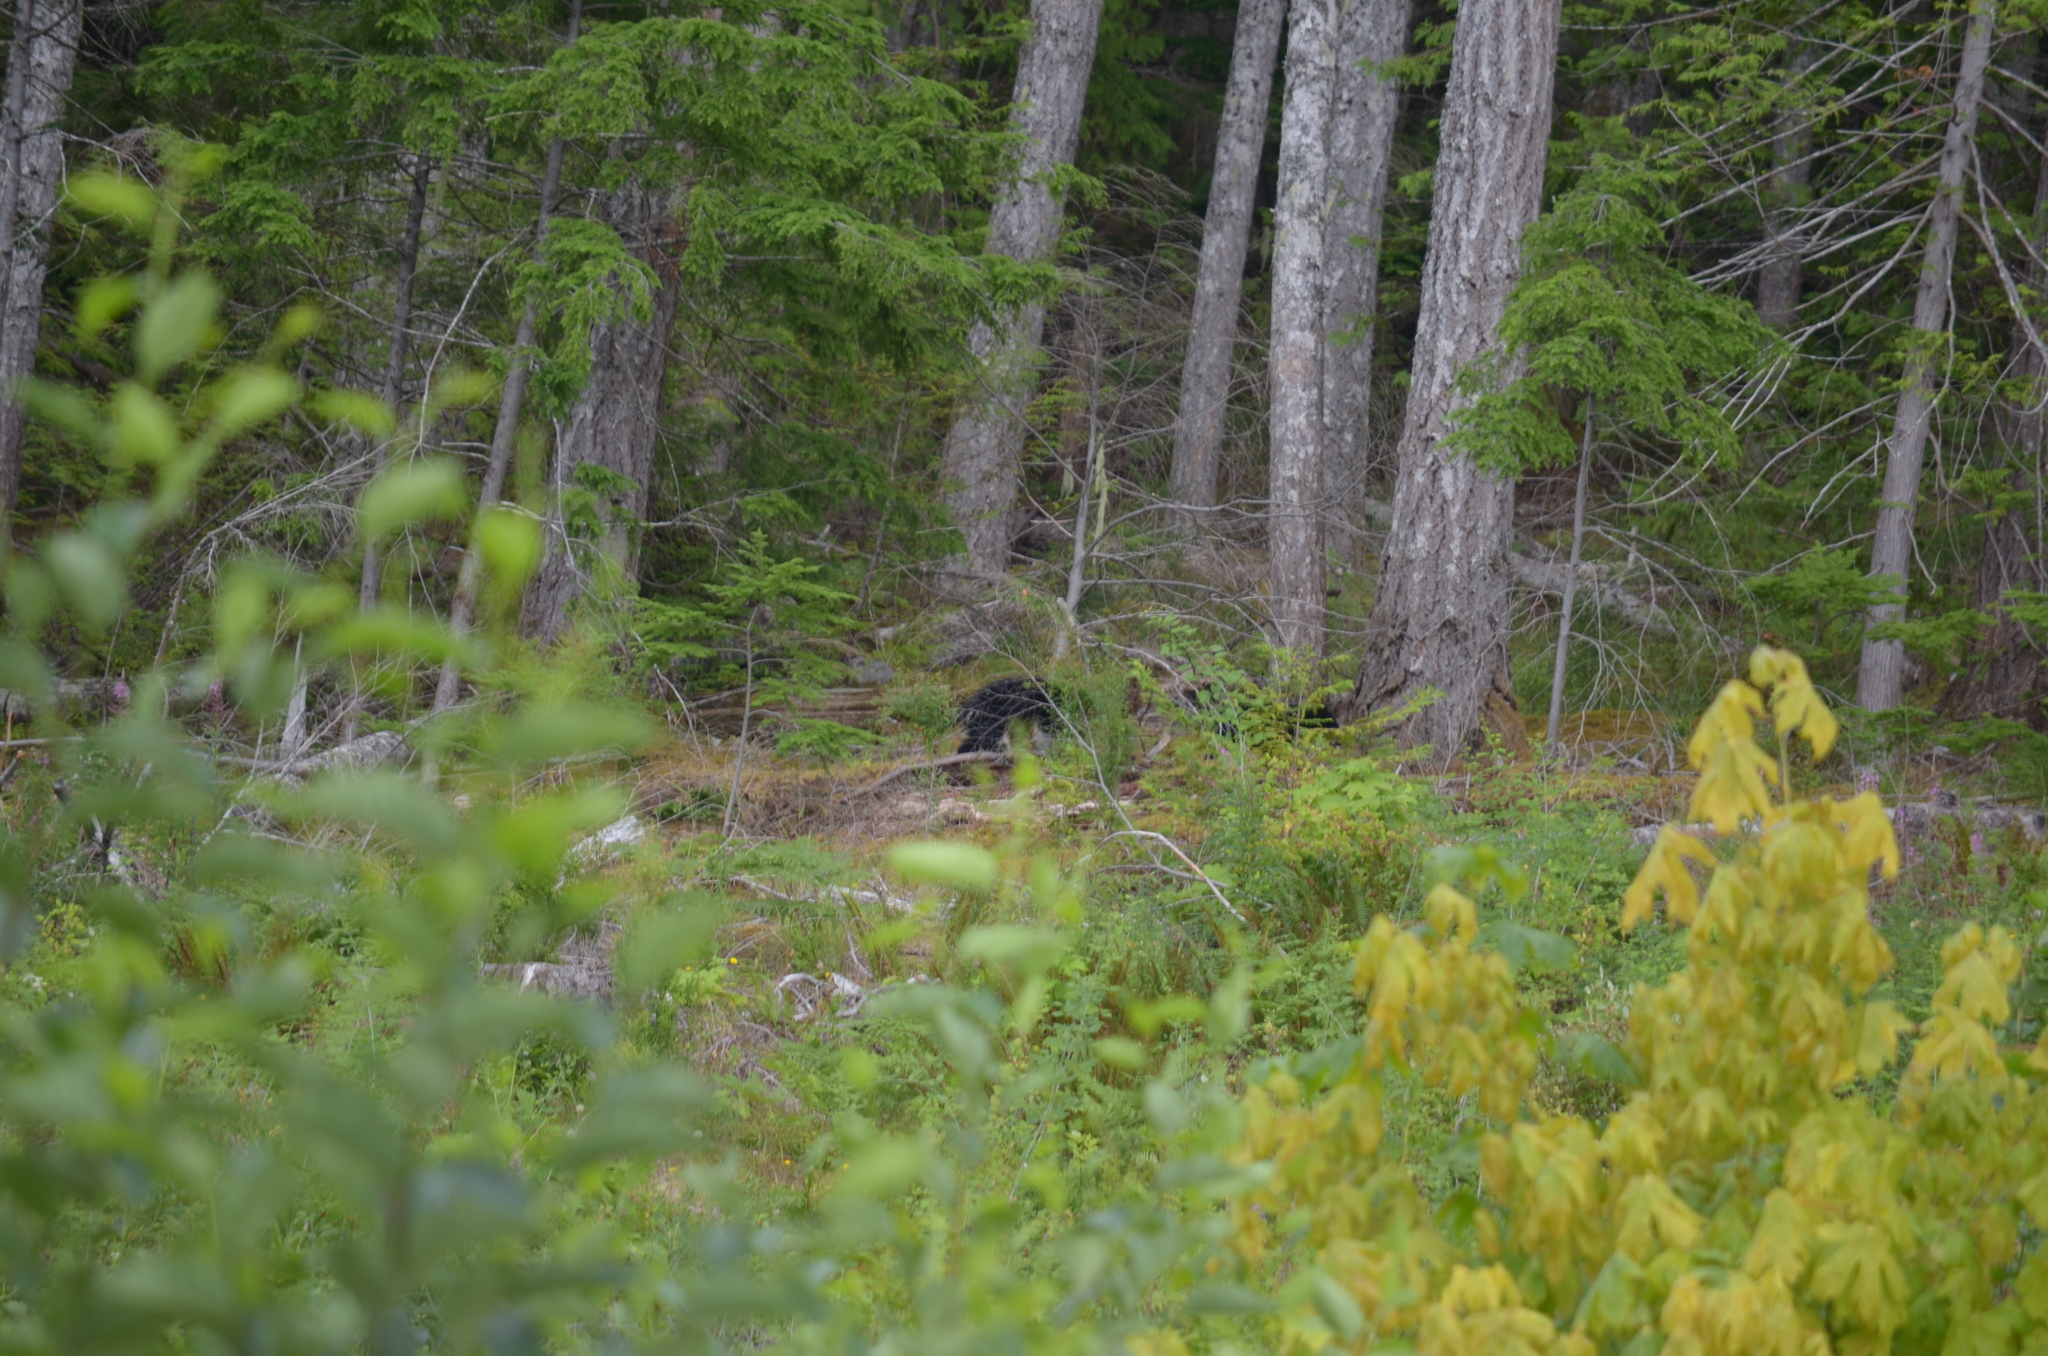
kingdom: Animalia
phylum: Chordata
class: Mammalia
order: Carnivora
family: Ursidae
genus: Ursus
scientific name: Ursus americanus
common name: American black bear
